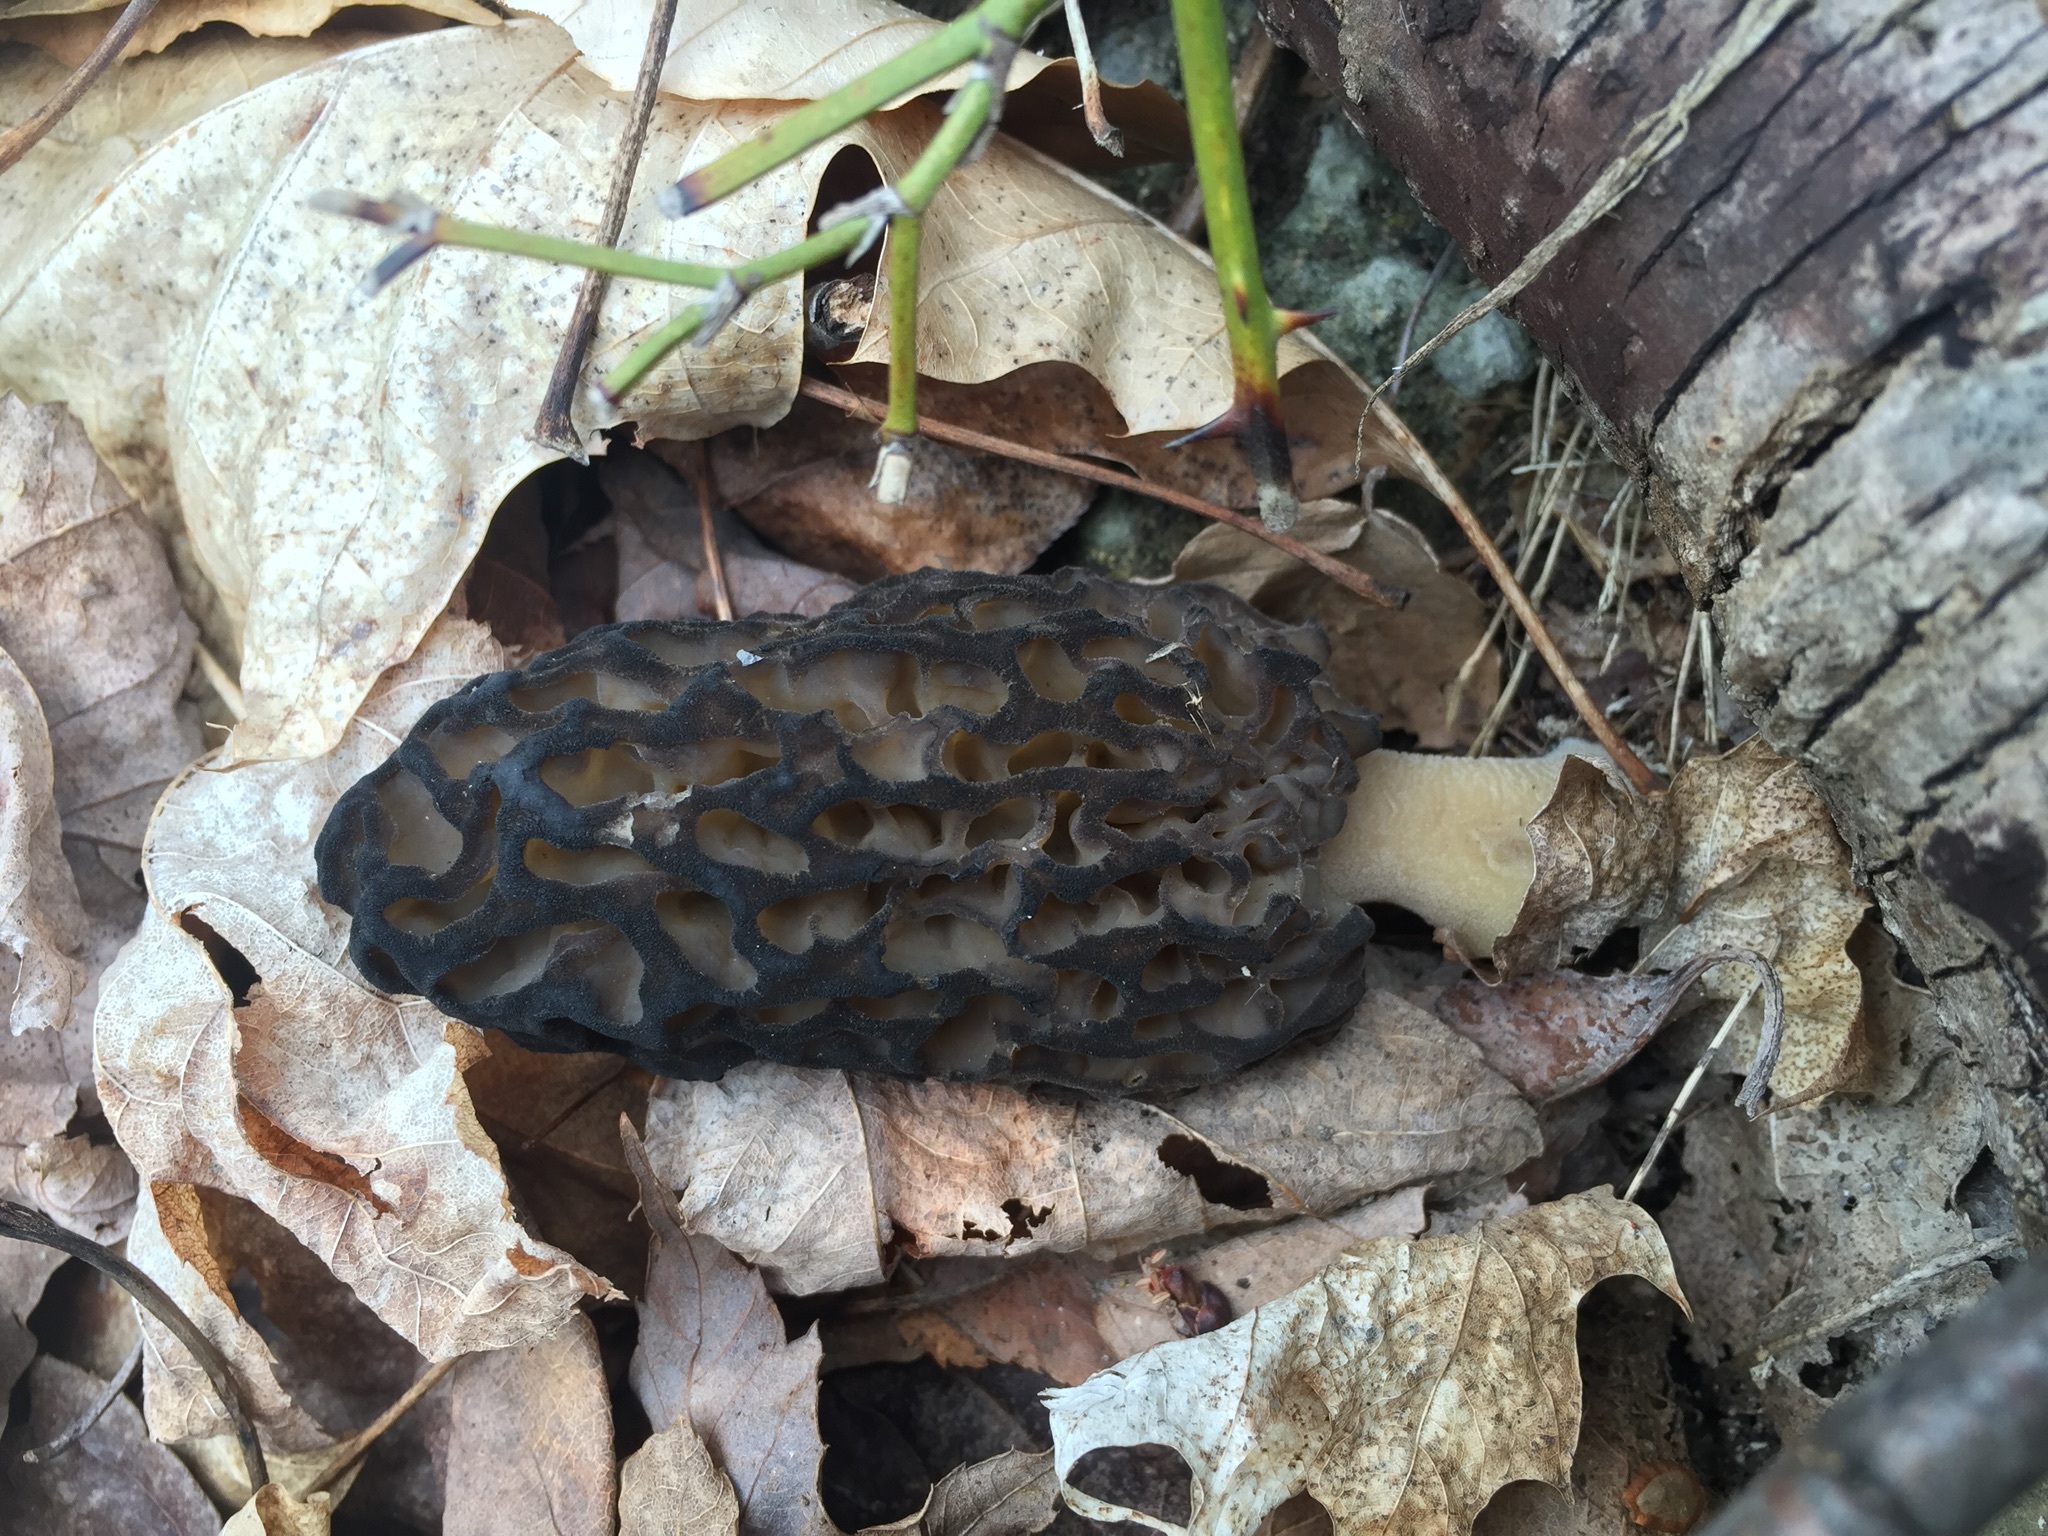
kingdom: Fungi
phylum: Ascomycota
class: Pezizomycetes
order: Pezizales
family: Morchellaceae
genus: Morchella
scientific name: Morchella angusticeps
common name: Black morel
